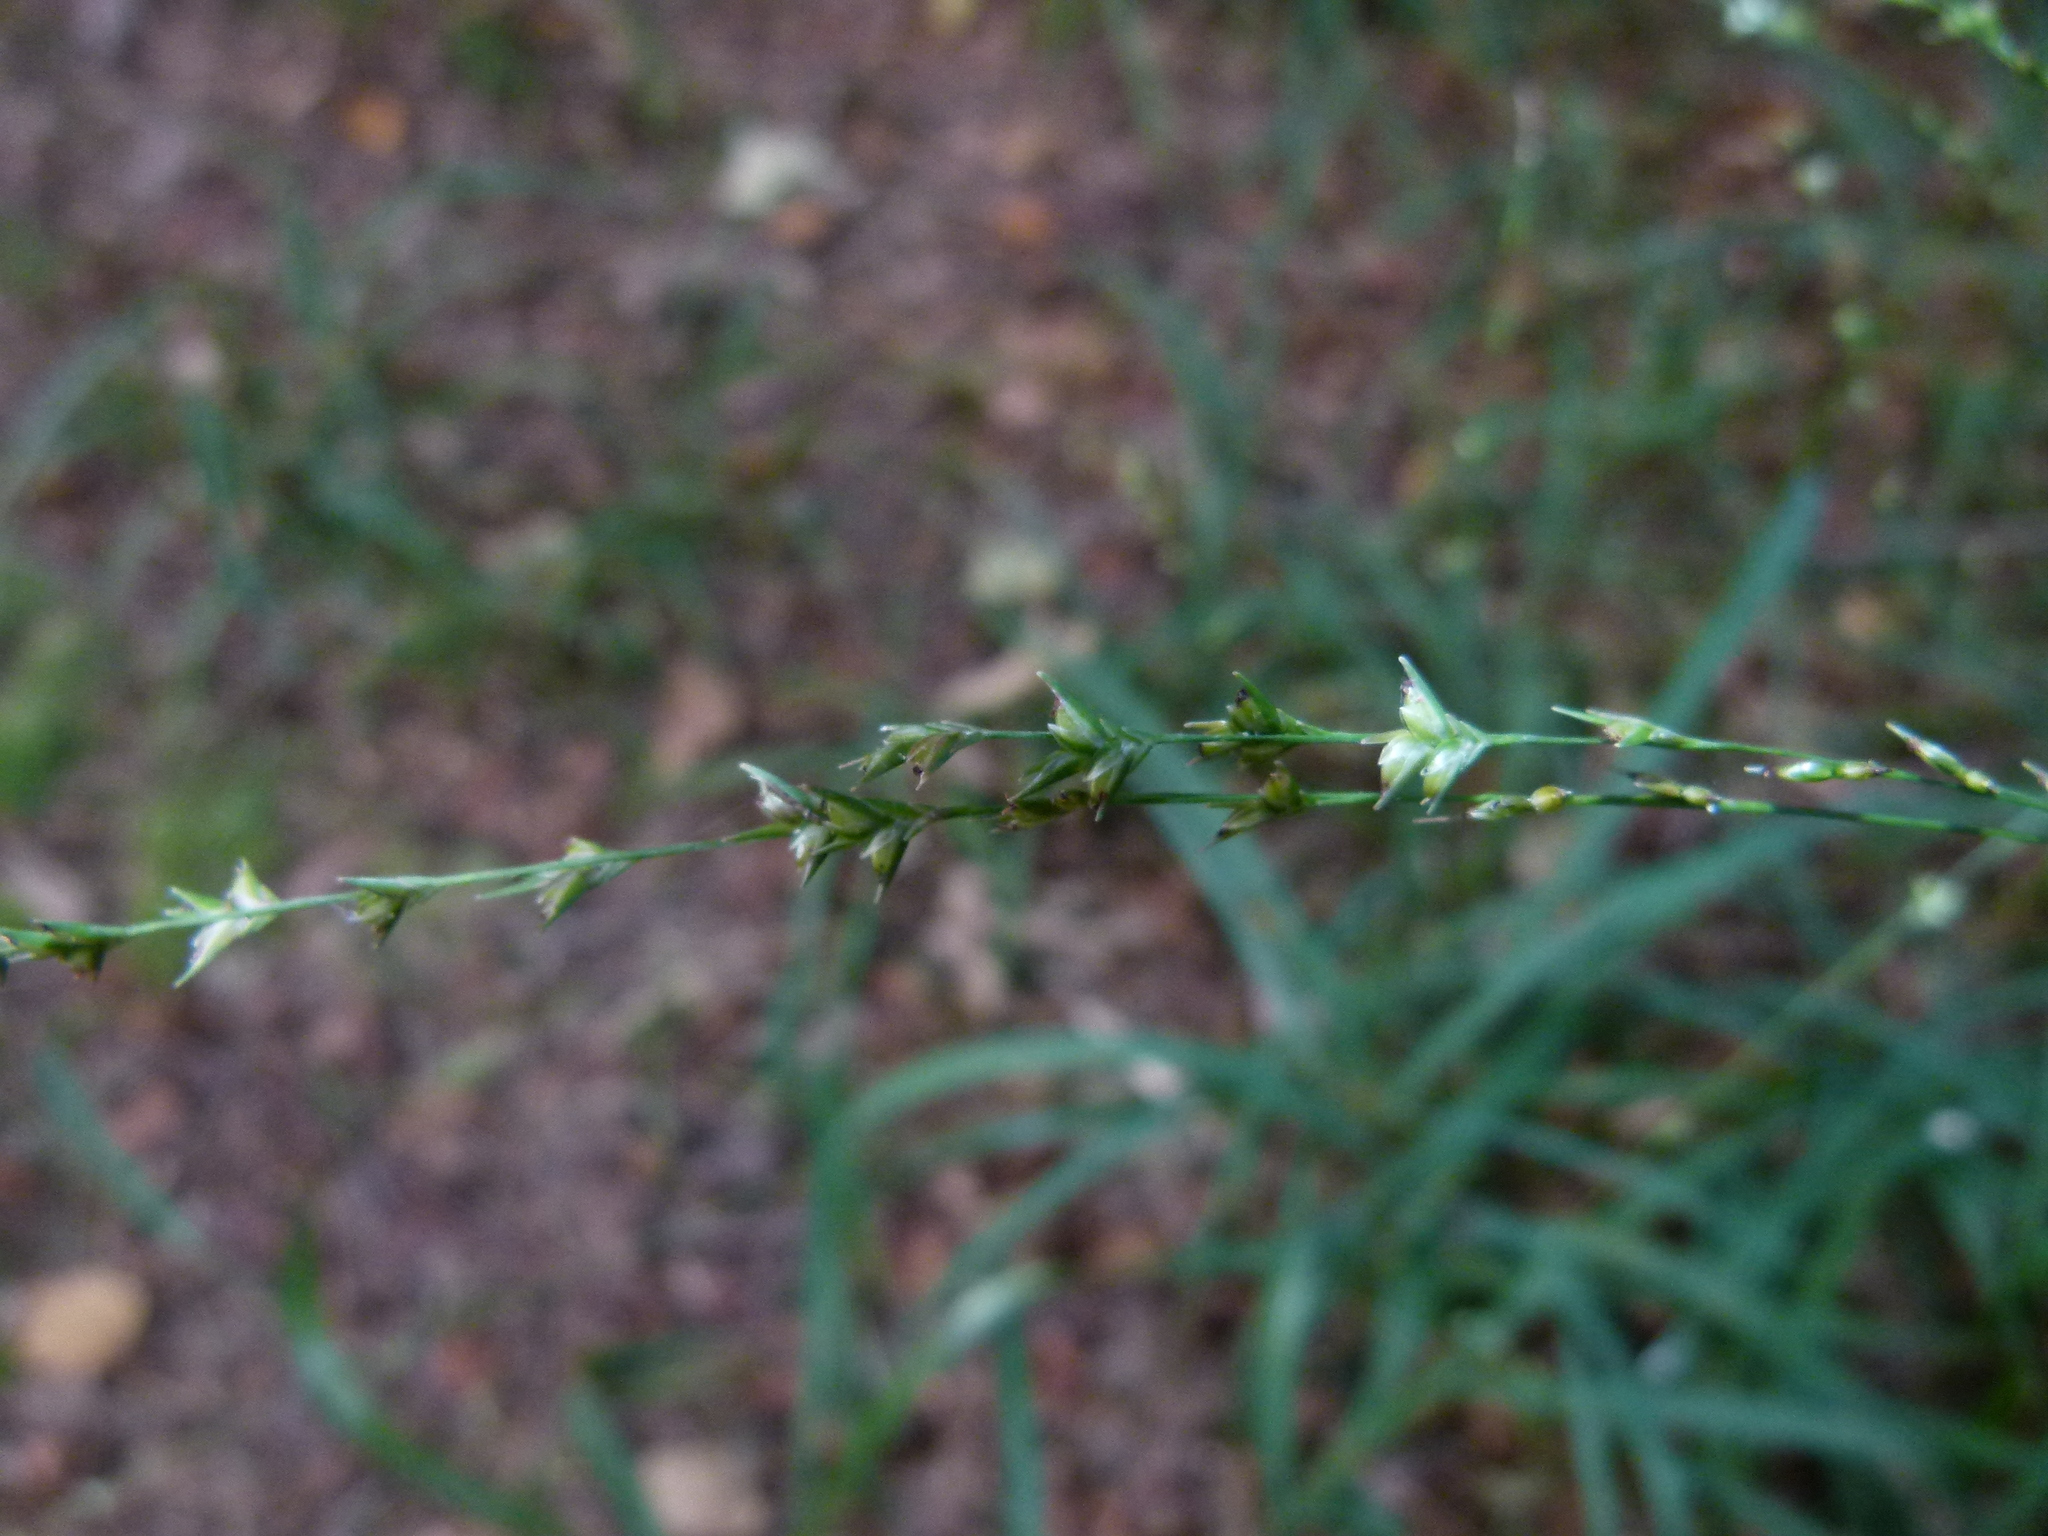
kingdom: Plantae
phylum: Tracheophyta
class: Liliopsida
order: Poales
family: Poaceae
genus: Diarrhena
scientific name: Diarrhena americana
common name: American beakgrain
